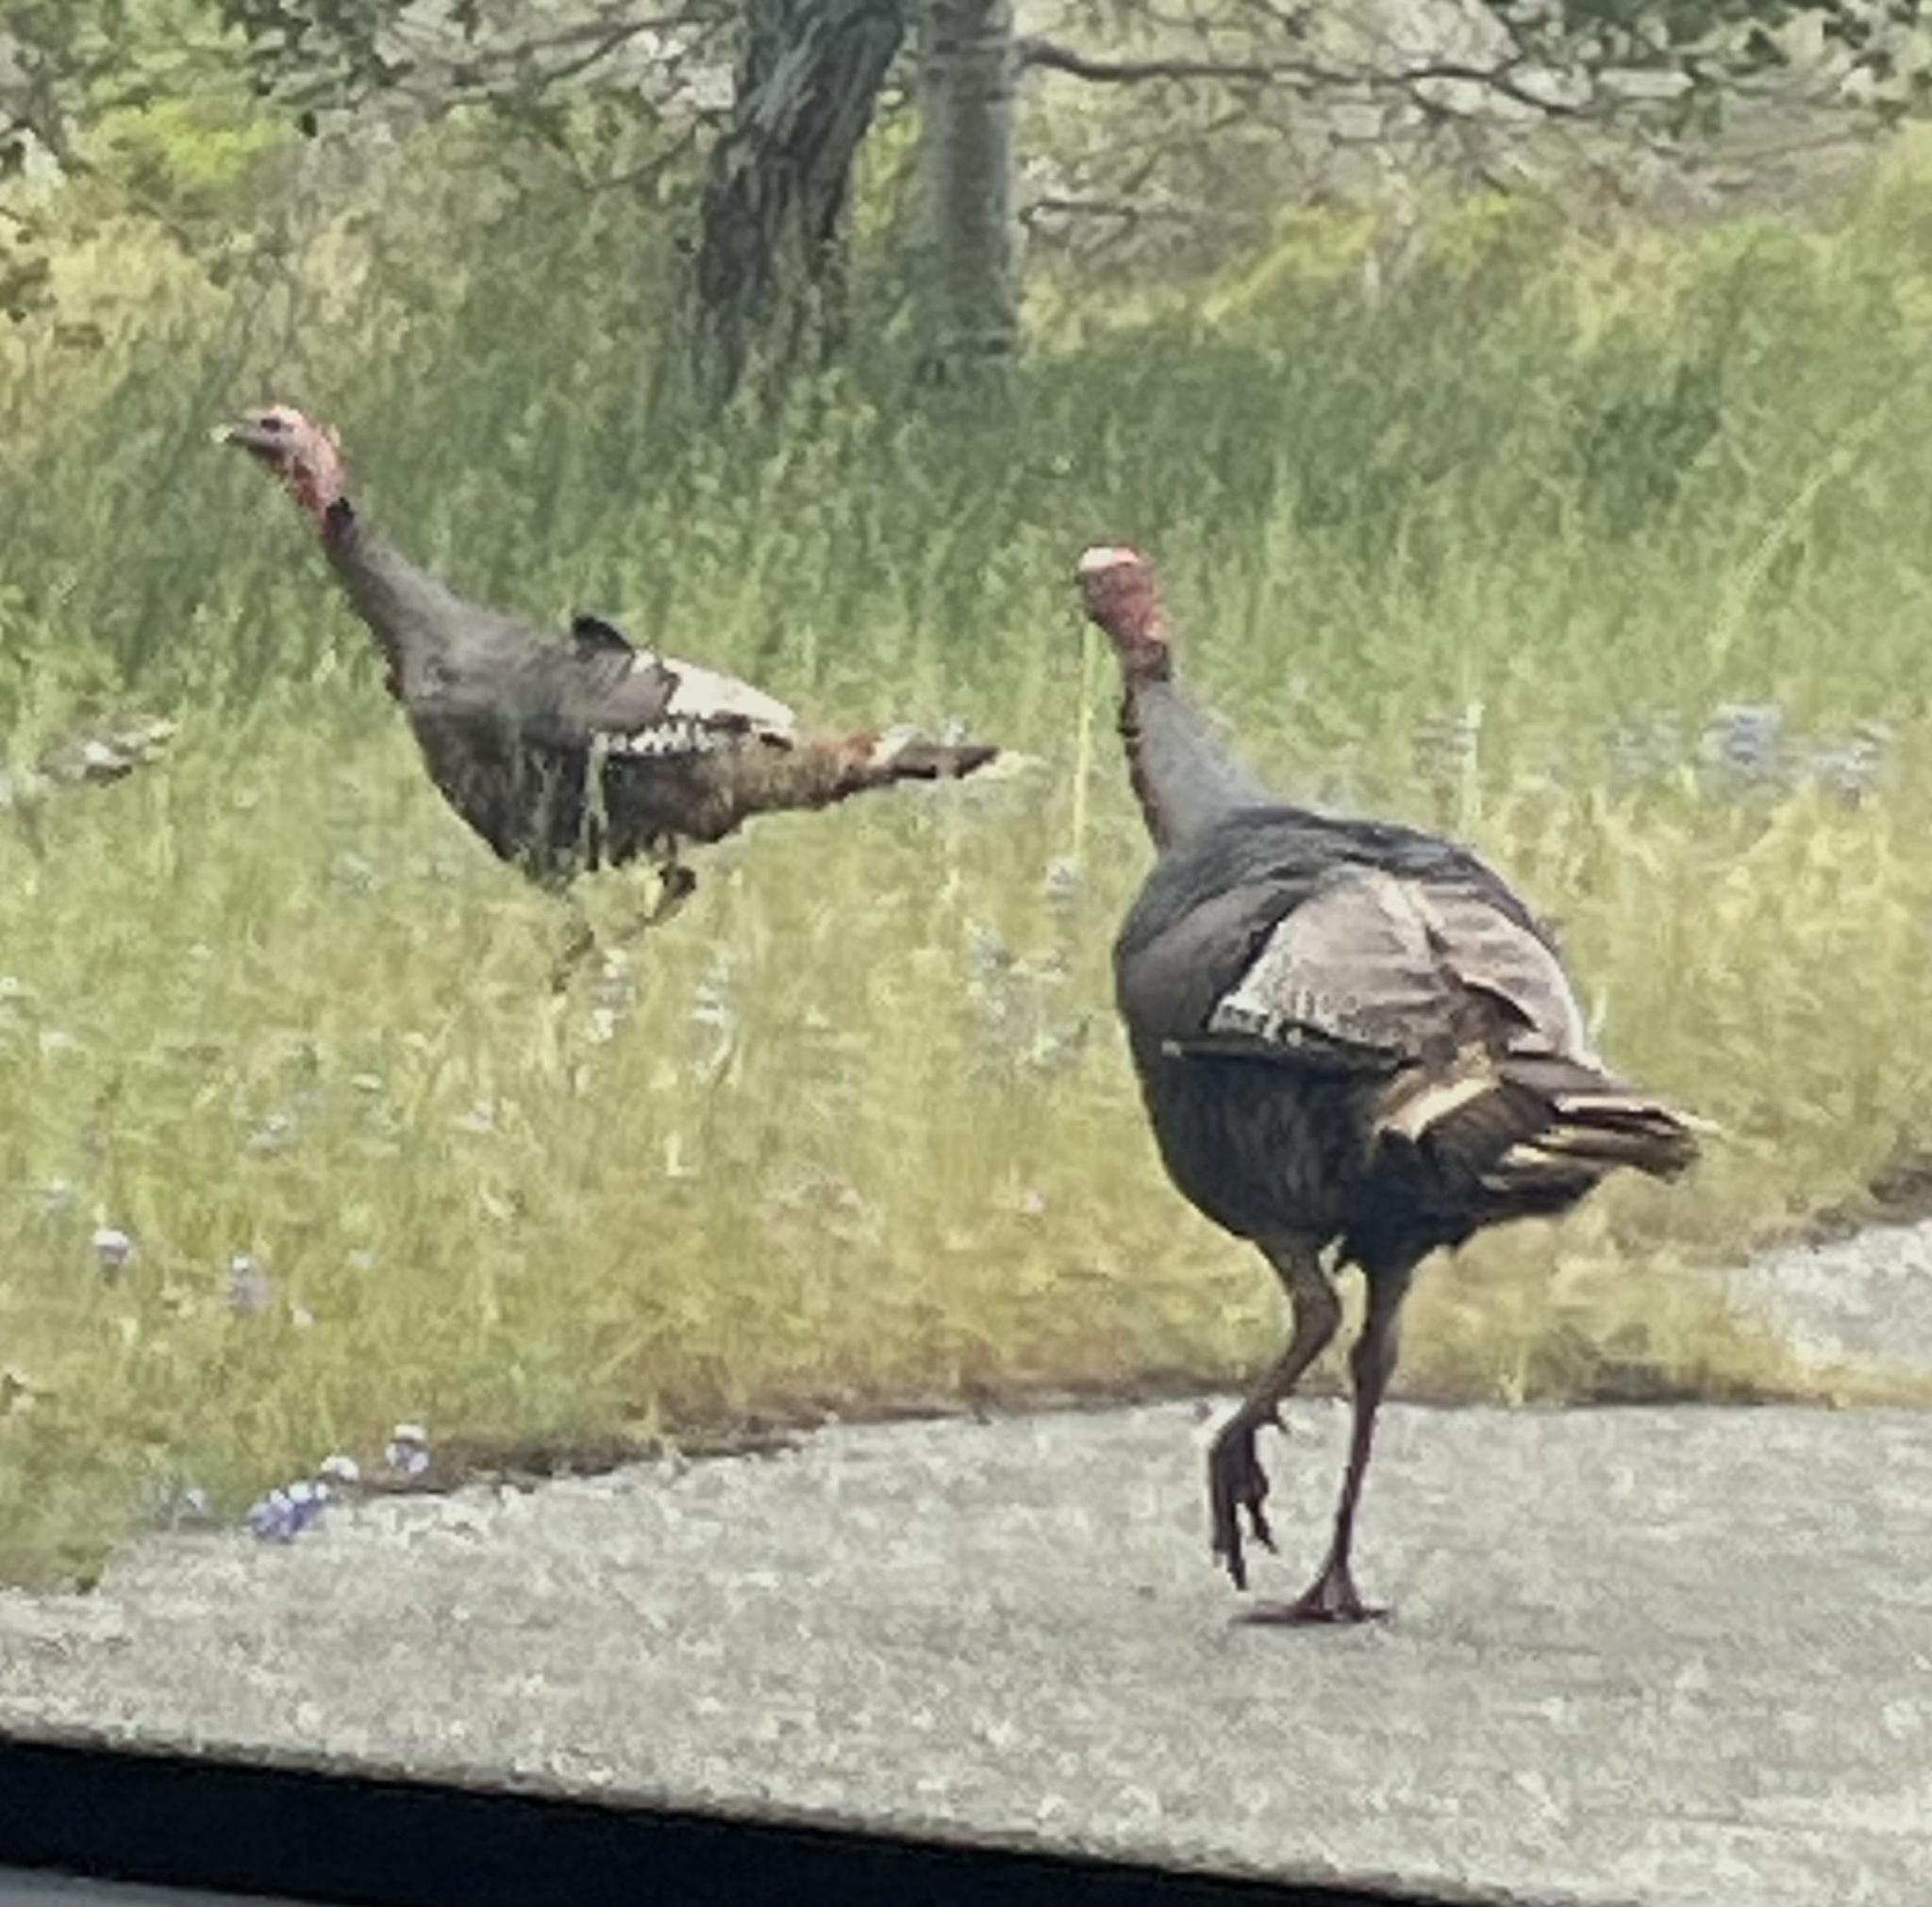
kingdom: Animalia
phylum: Chordata
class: Aves
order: Galliformes
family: Phasianidae
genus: Meleagris
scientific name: Meleagris gallopavo
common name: Wild turkey
